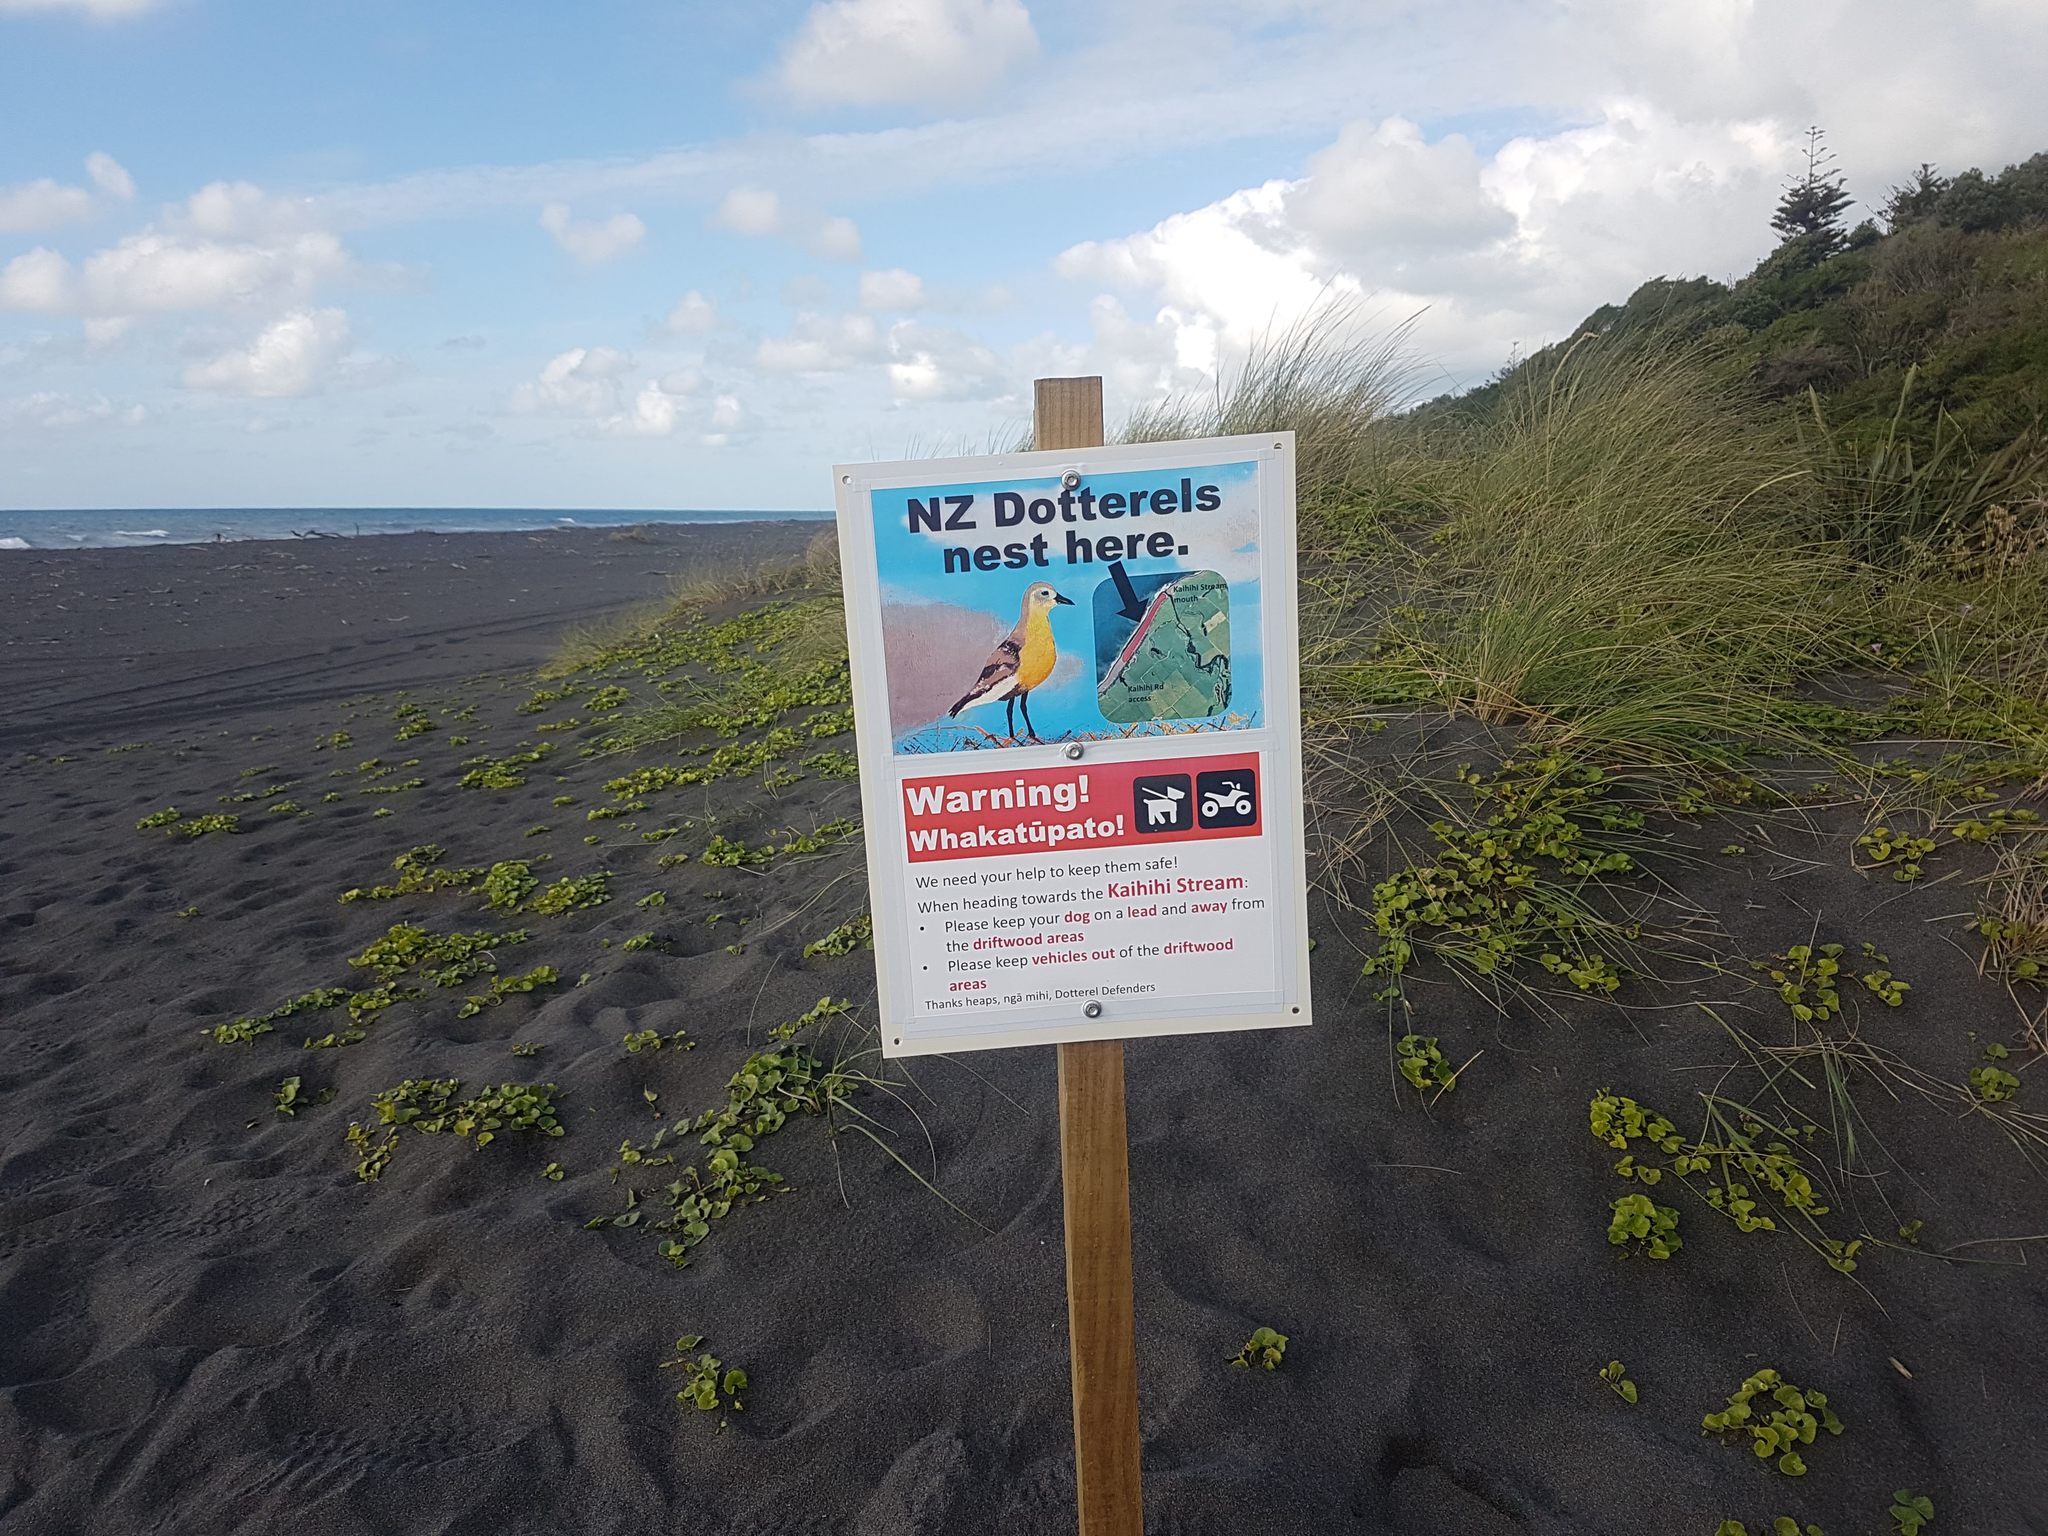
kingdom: Animalia
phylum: Chordata
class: Aves
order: Charadriiformes
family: Charadriidae
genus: Anarhynchus
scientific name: Anarhynchus
